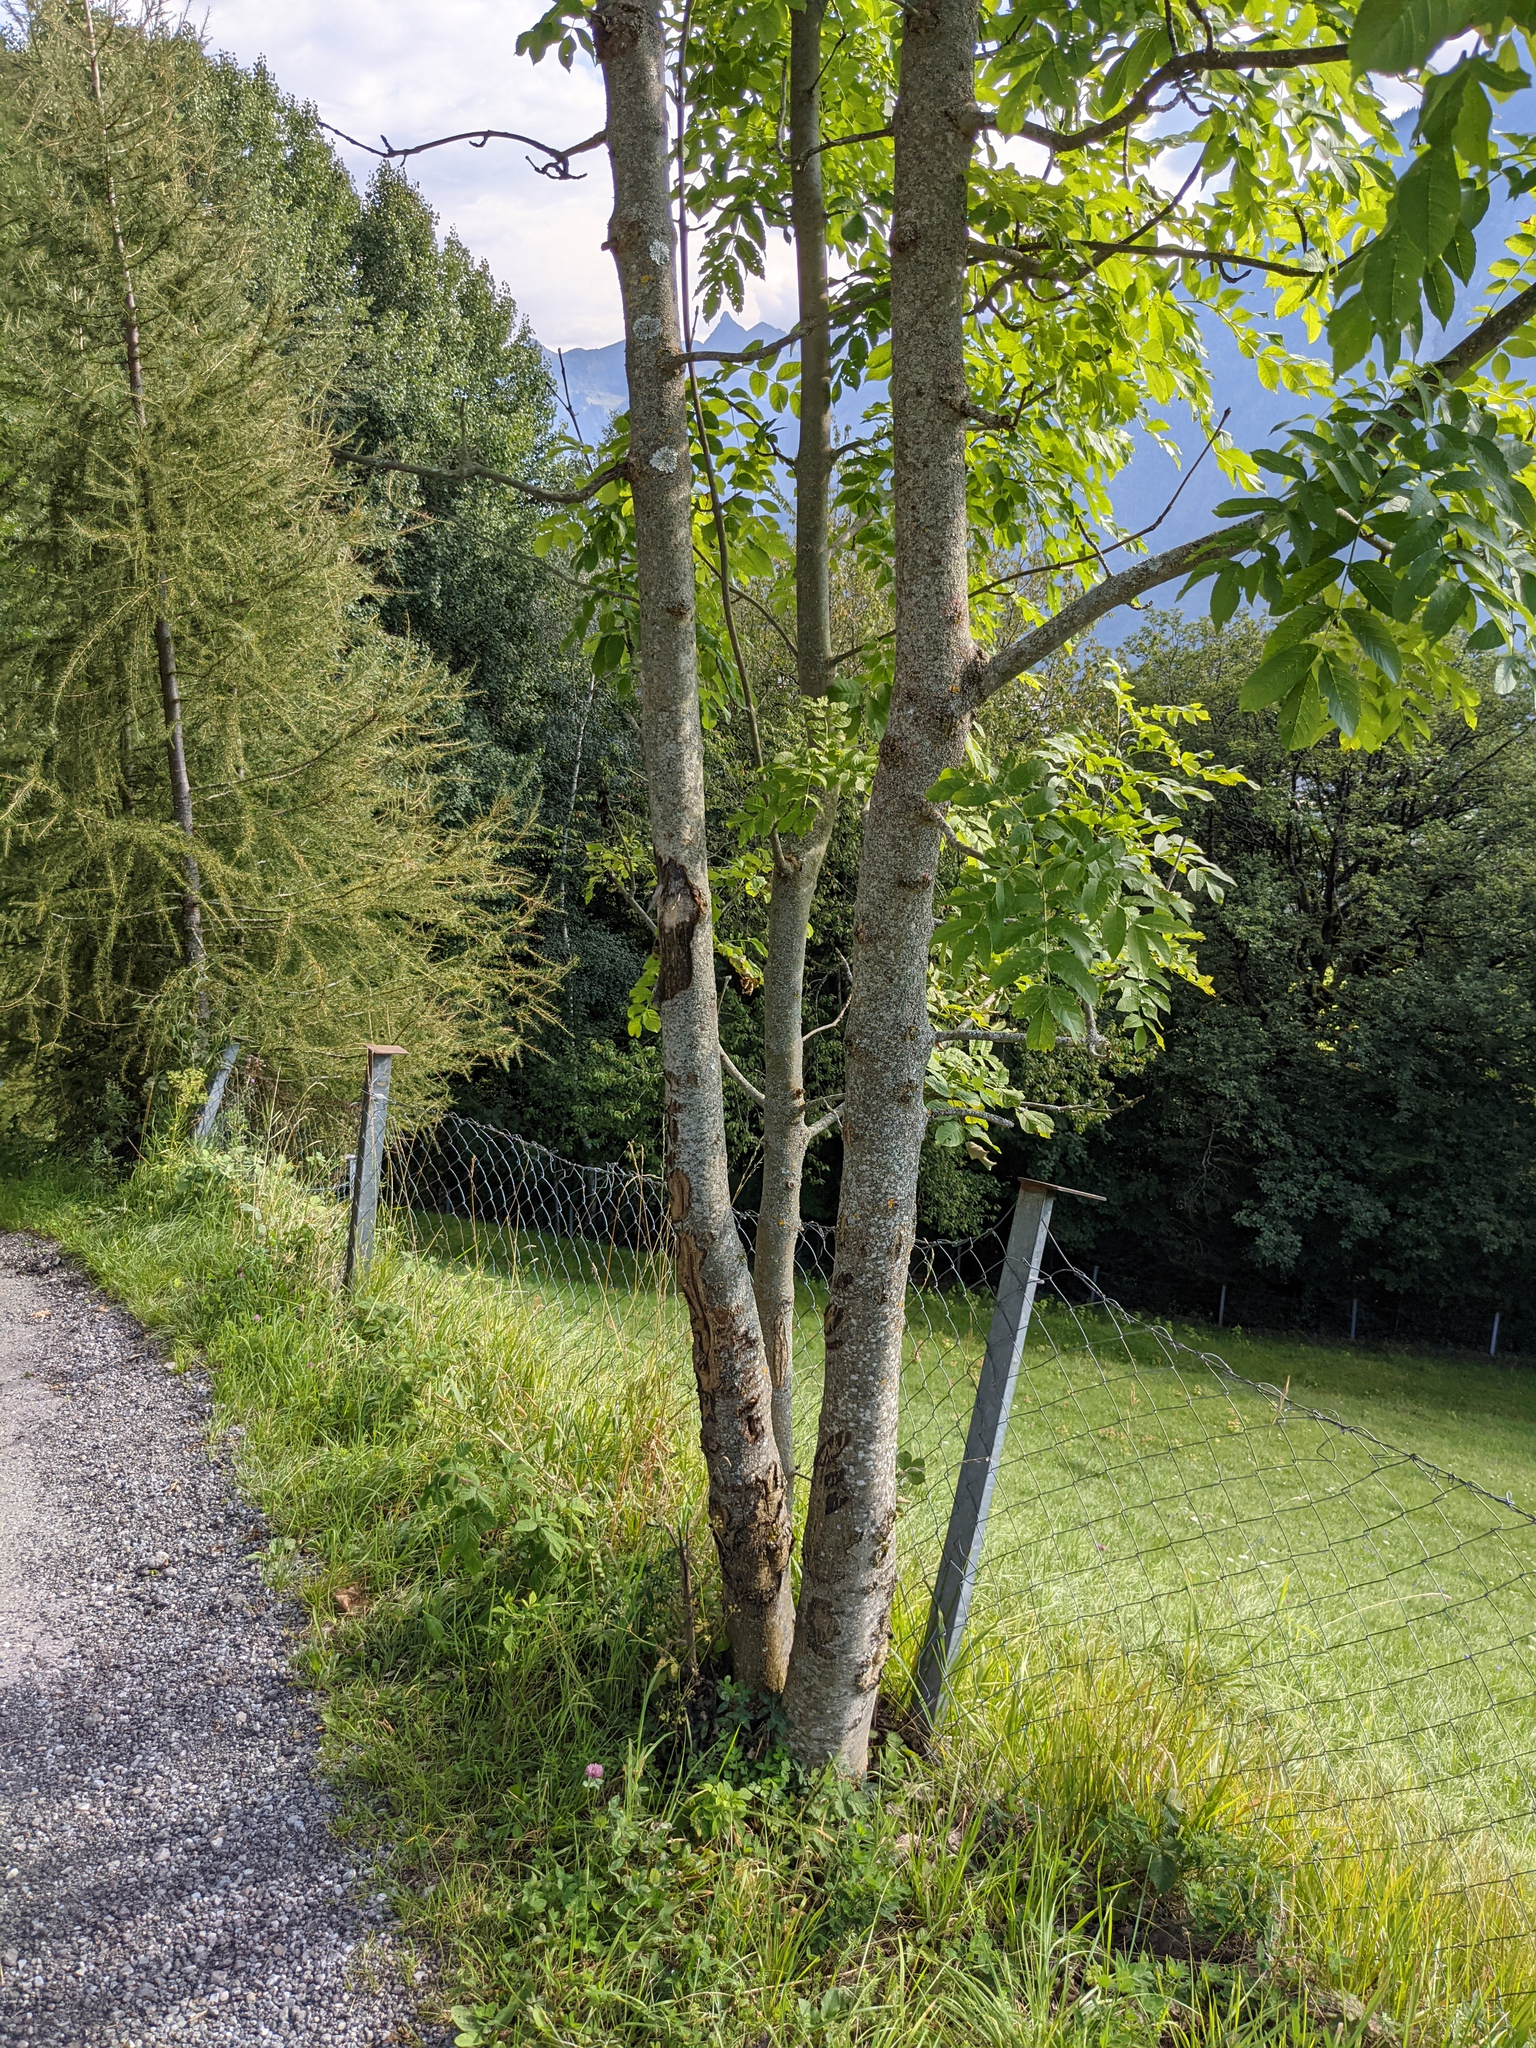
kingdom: Plantae
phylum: Tracheophyta
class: Magnoliopsida
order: Lamiales
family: Oleaceae
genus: Fraxinus
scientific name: Fraxinus excelsior
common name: European ash
